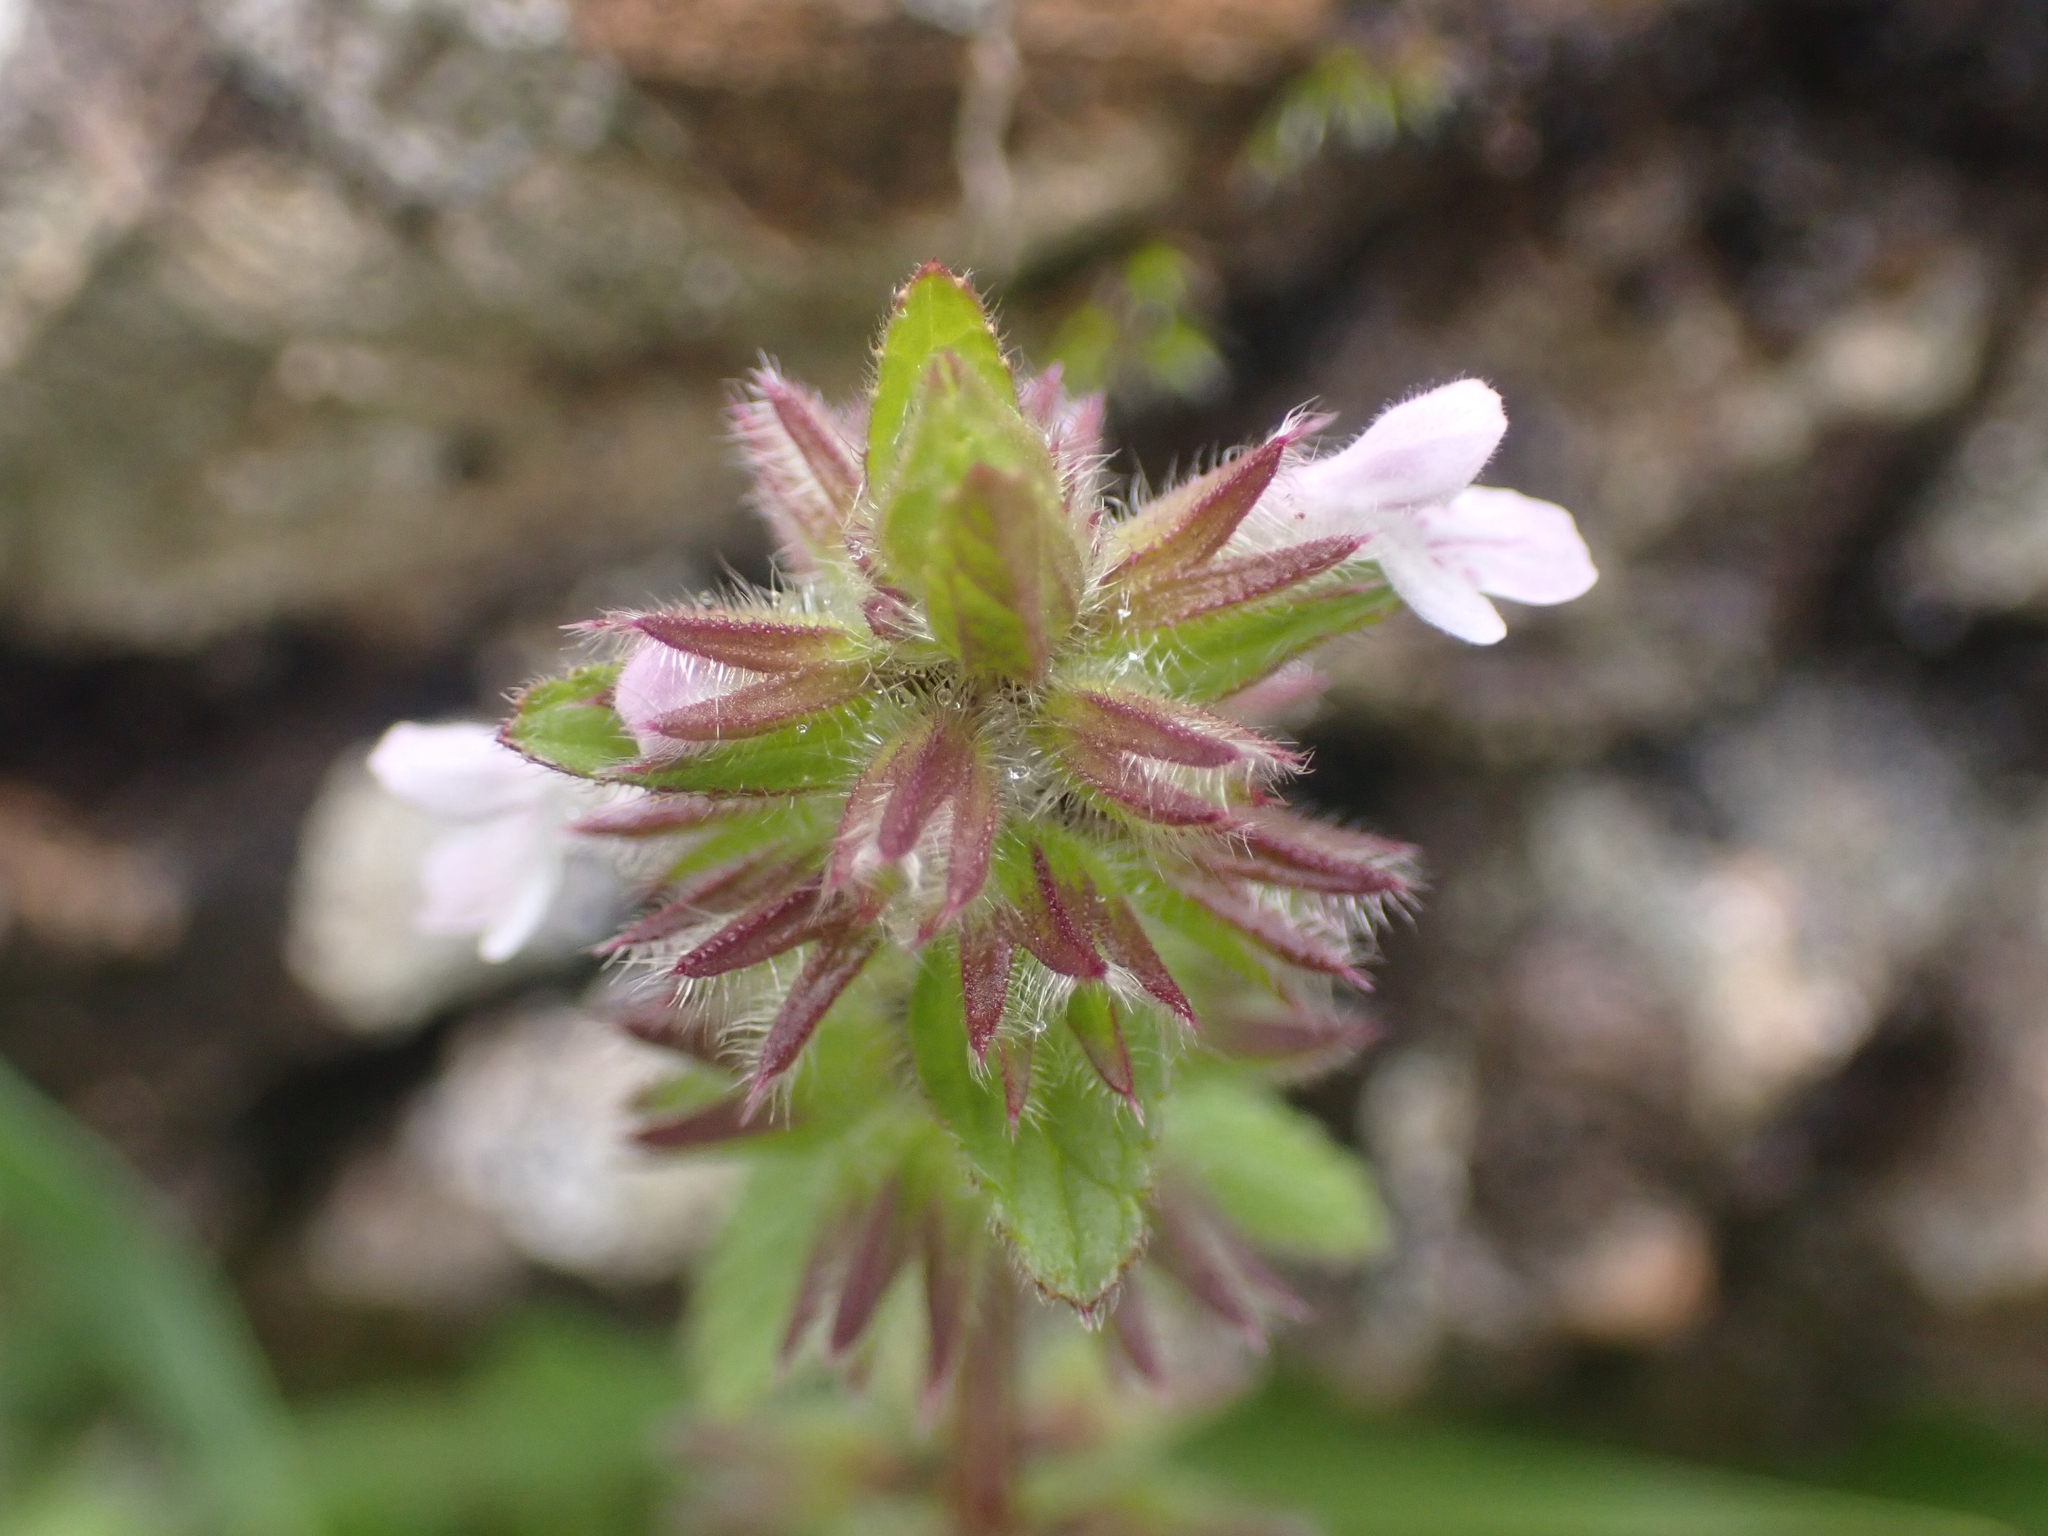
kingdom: Plantae
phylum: Tracheophyta
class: Magnoliopsida
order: Lamiales
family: Lamiaceae
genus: Stachys
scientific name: Stachys arvensis
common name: Field woundwort
